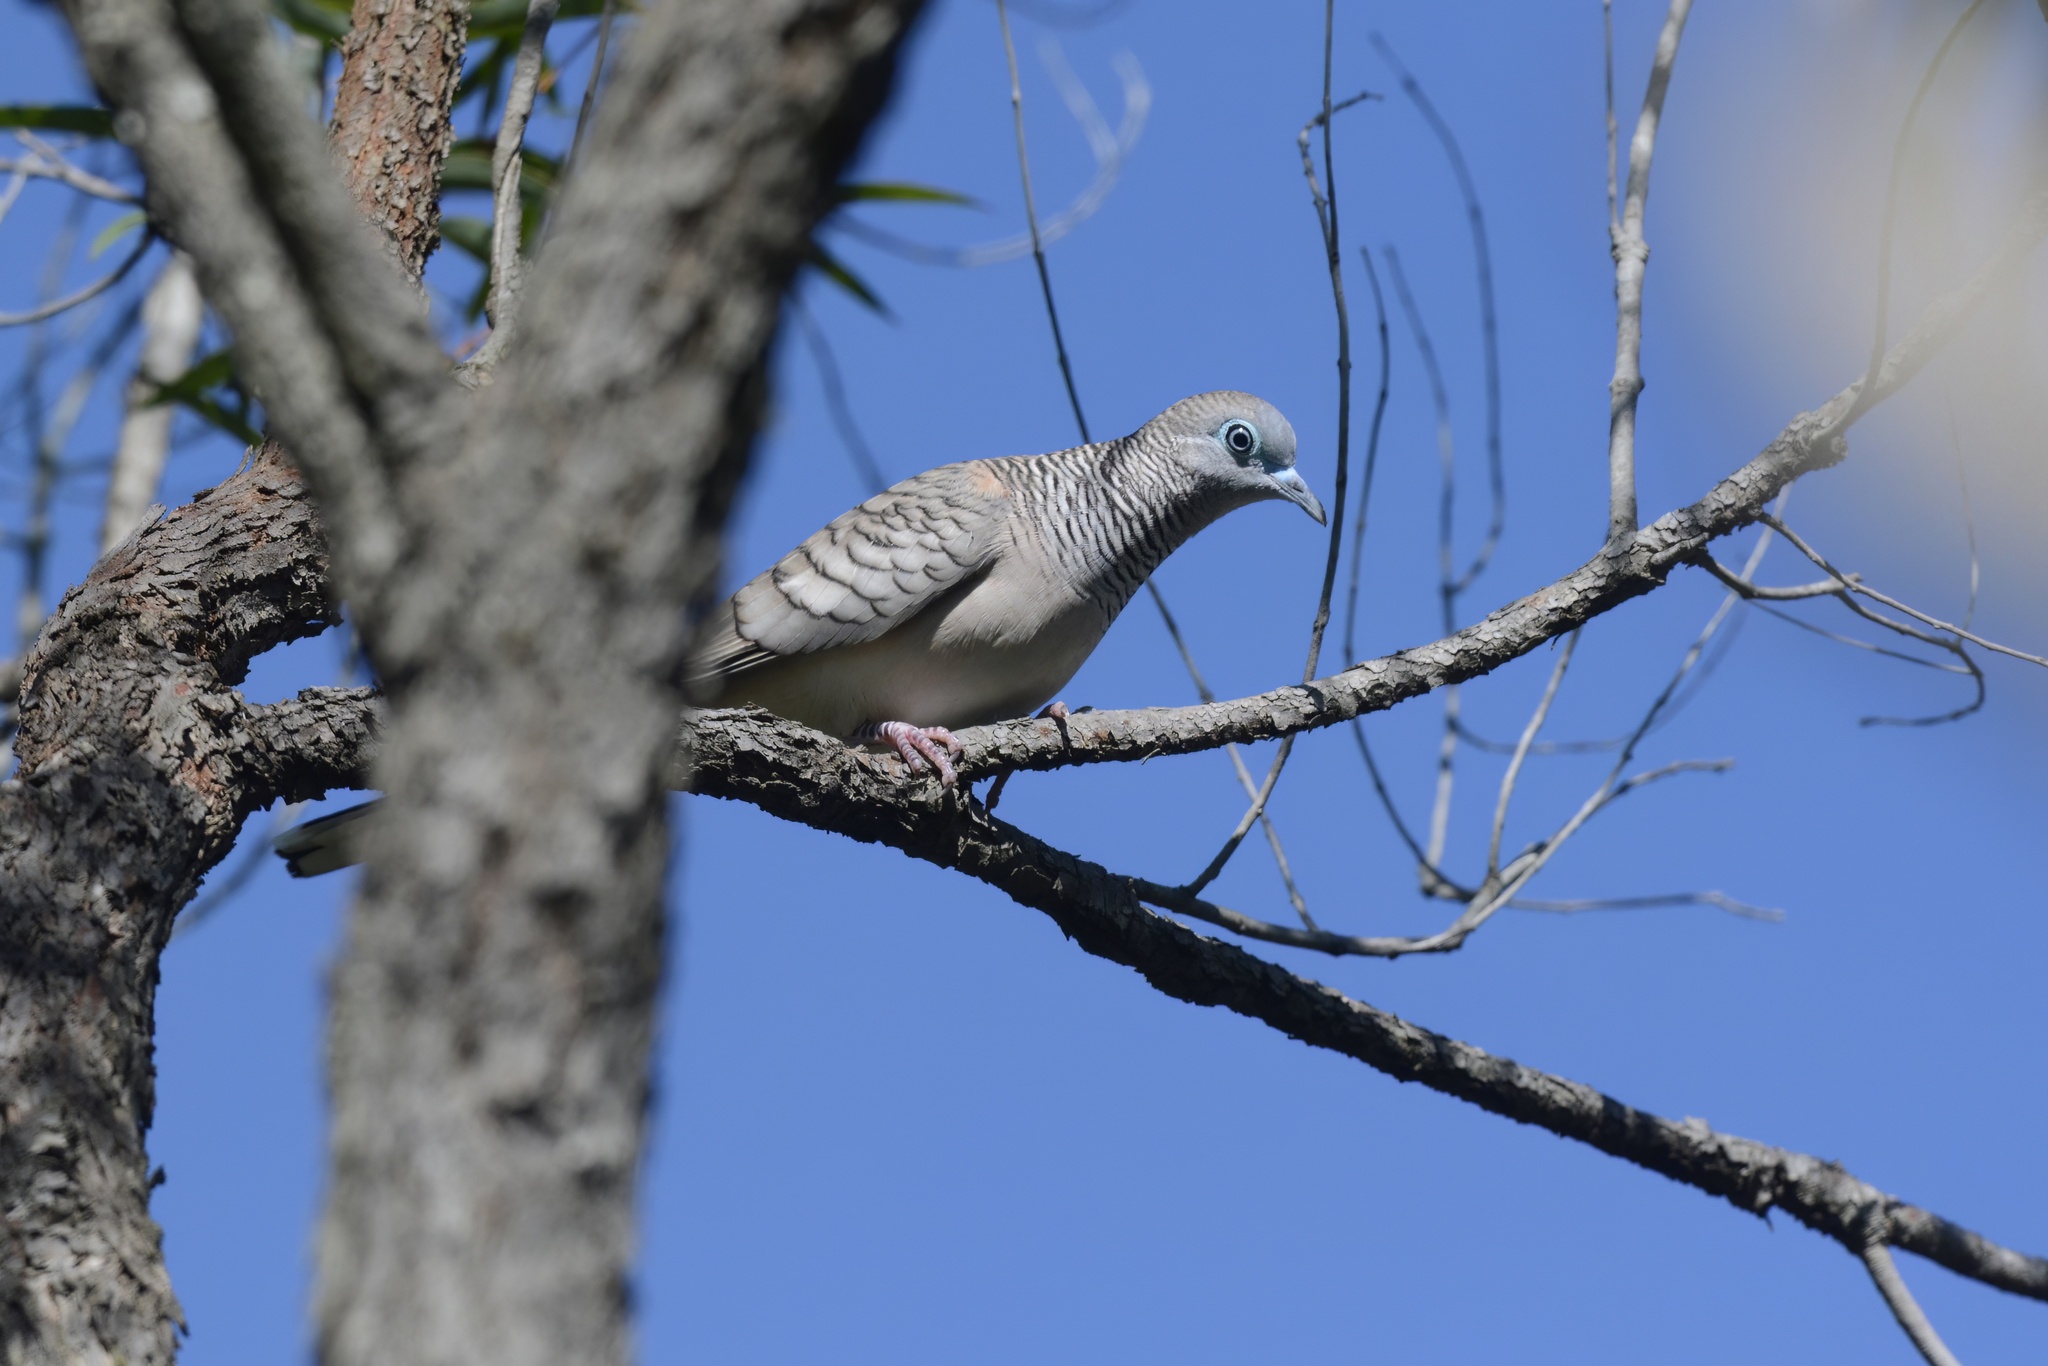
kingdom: Animalia
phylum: Chordata
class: Aves
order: Columbiformes
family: Columbidae
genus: Geopelia
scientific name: Geopelia placida
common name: Peaceful dove
